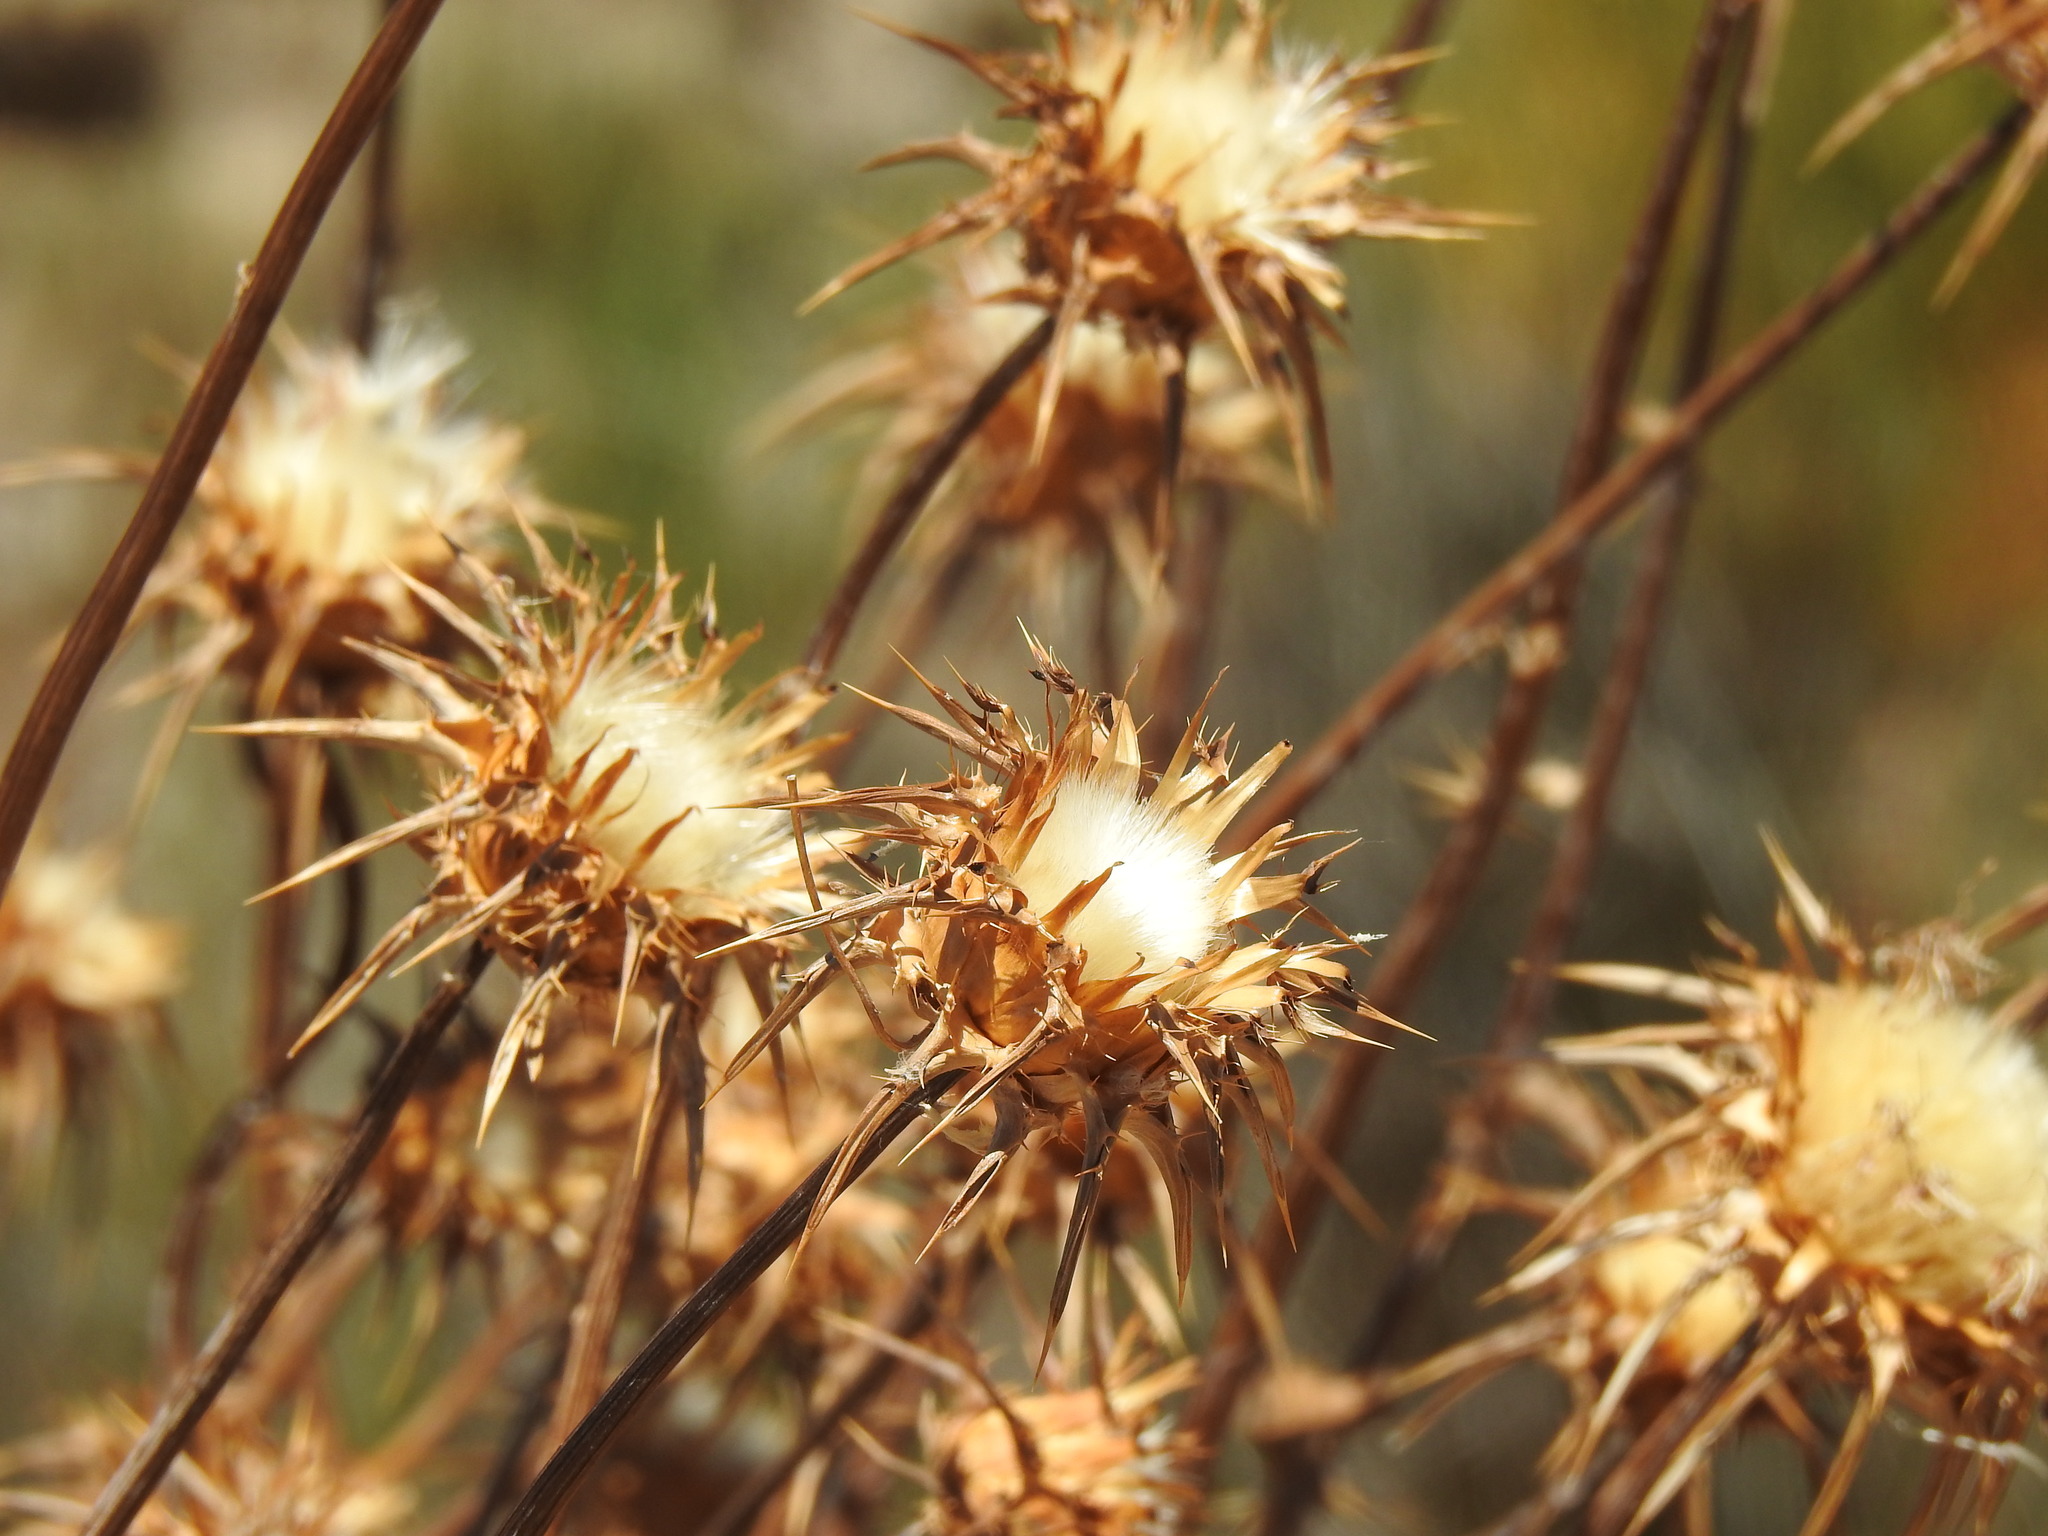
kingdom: Plantae
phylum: Tracheophyta
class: Magnoliopsida
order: Asterales
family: Asteraceae
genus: Silybum
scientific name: Silybum marianum
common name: Milk thistle
